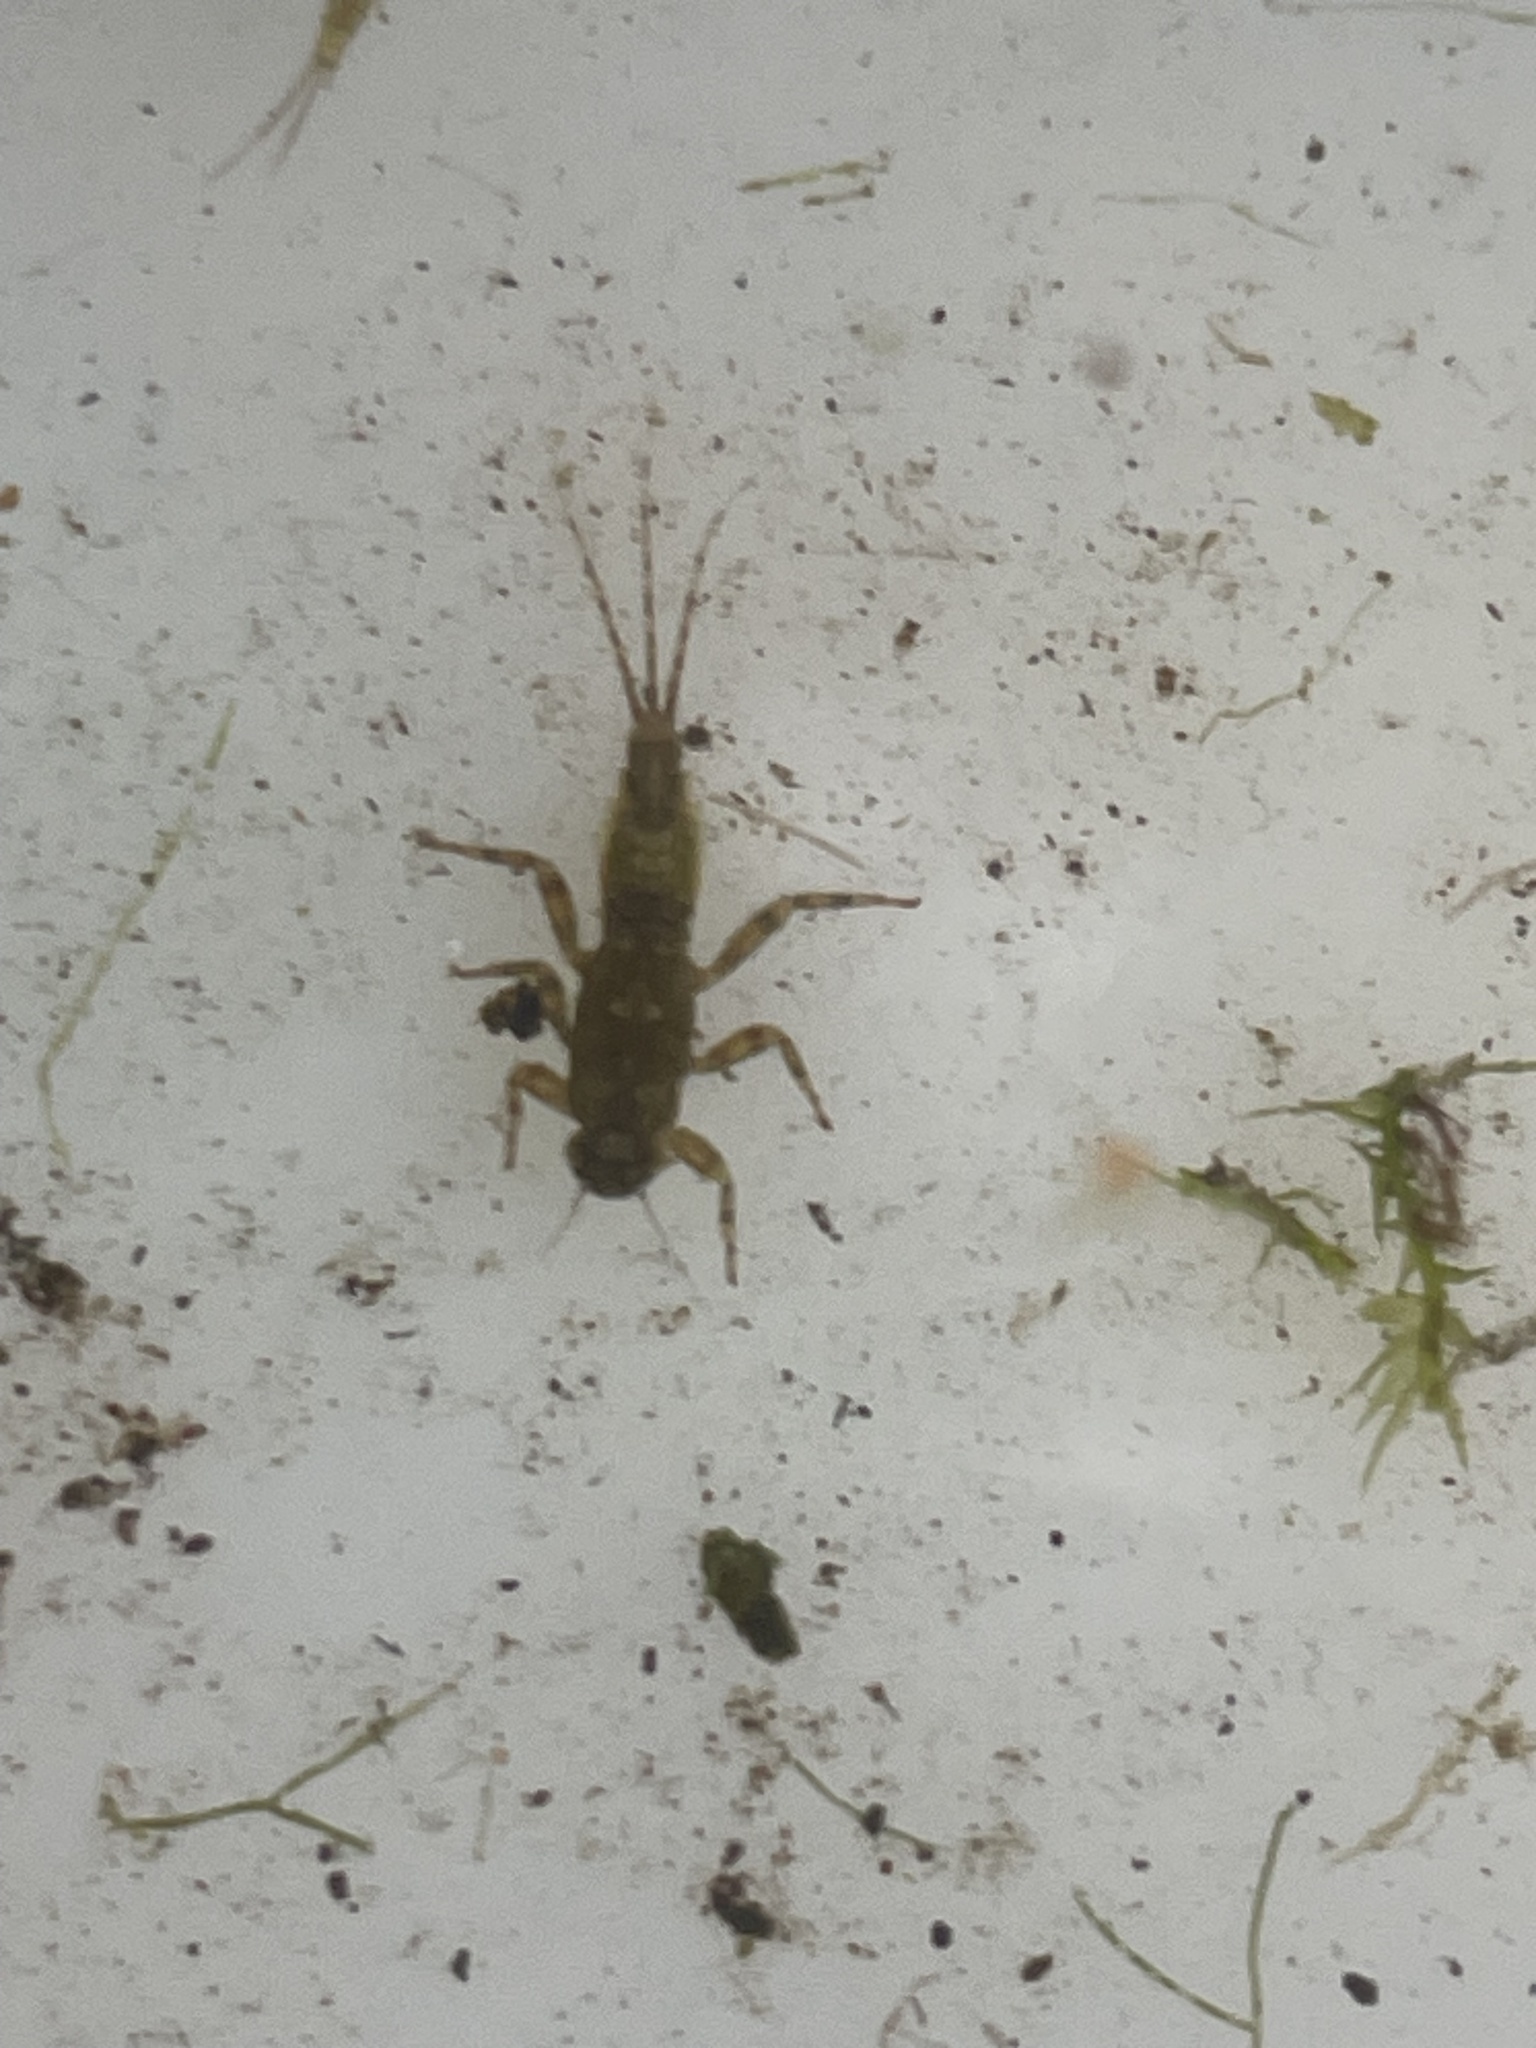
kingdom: Animalia
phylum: Arthropoda
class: Insecta
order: Ephemeroptera
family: Ephemerellidae
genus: Serratella
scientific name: Serratella ignita
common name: Blue-winged olive
